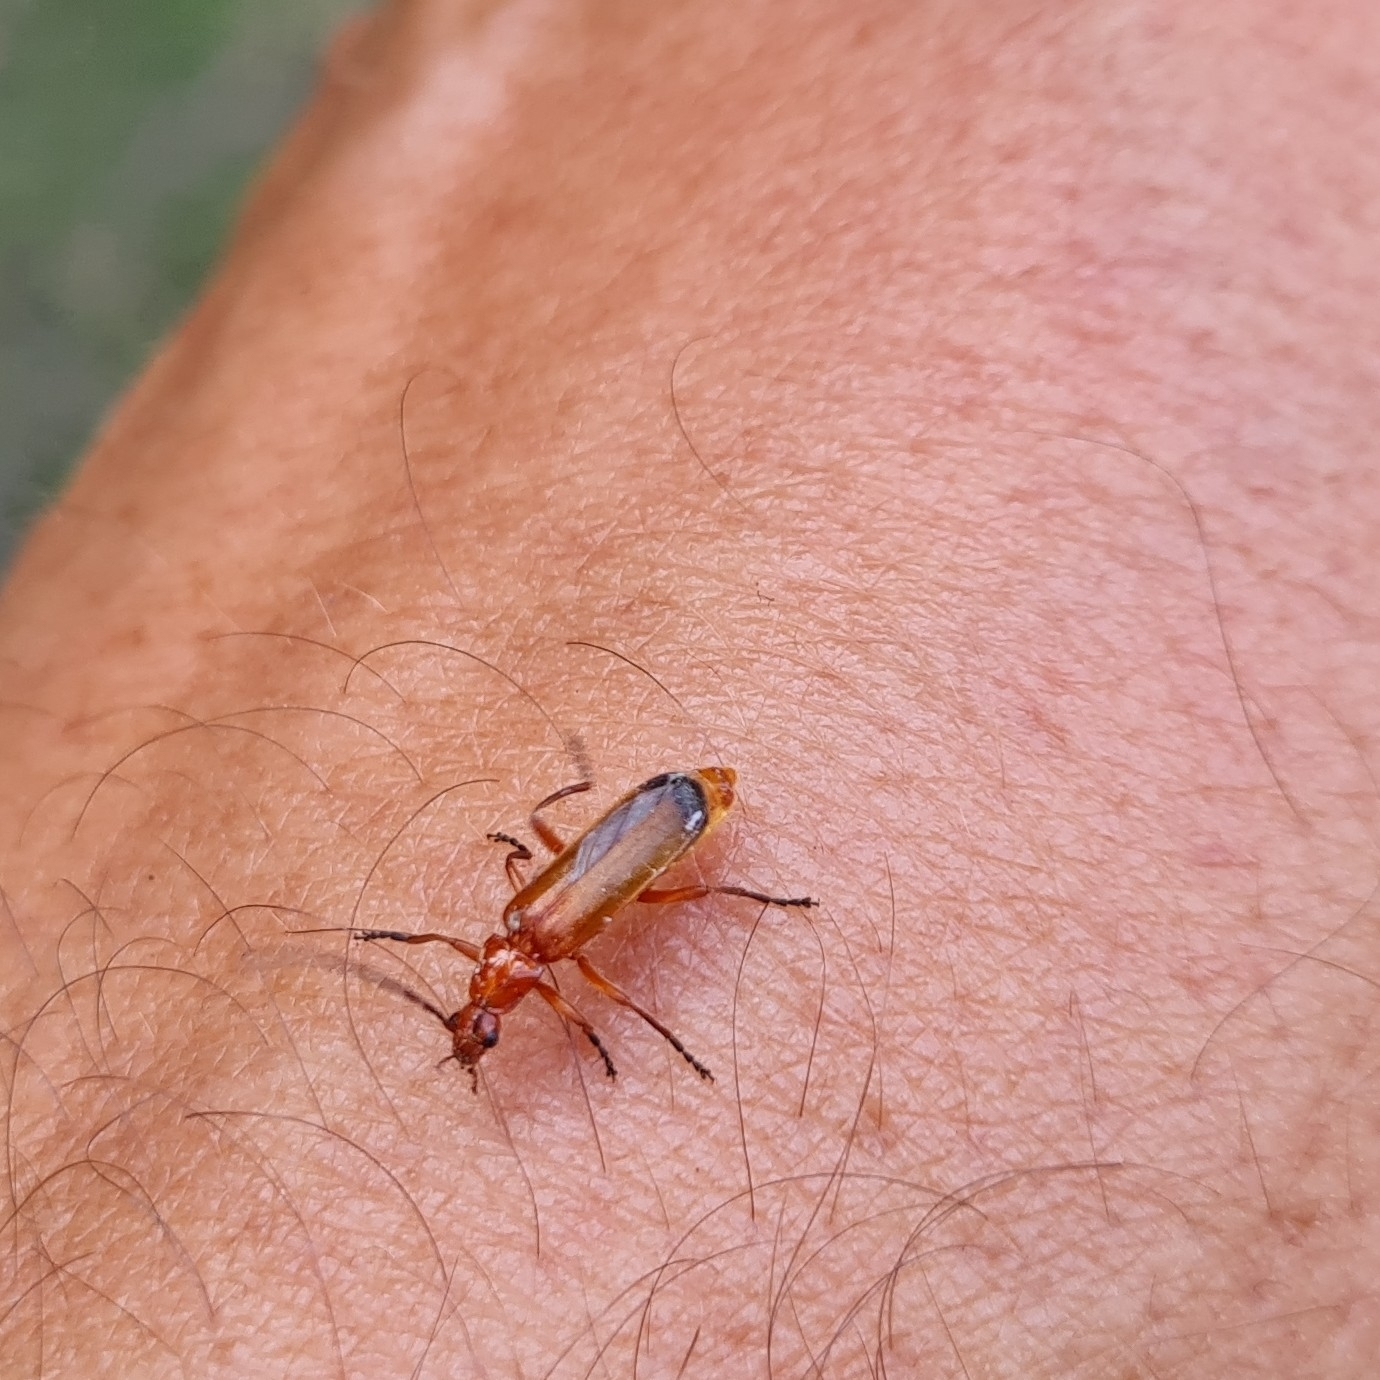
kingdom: Animalia
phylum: Arthropoda
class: Insecta
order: Coleoptera
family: Cantharidae
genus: Rhagonycha
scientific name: Rhagonycha fulva
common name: Common red soldier beetle
